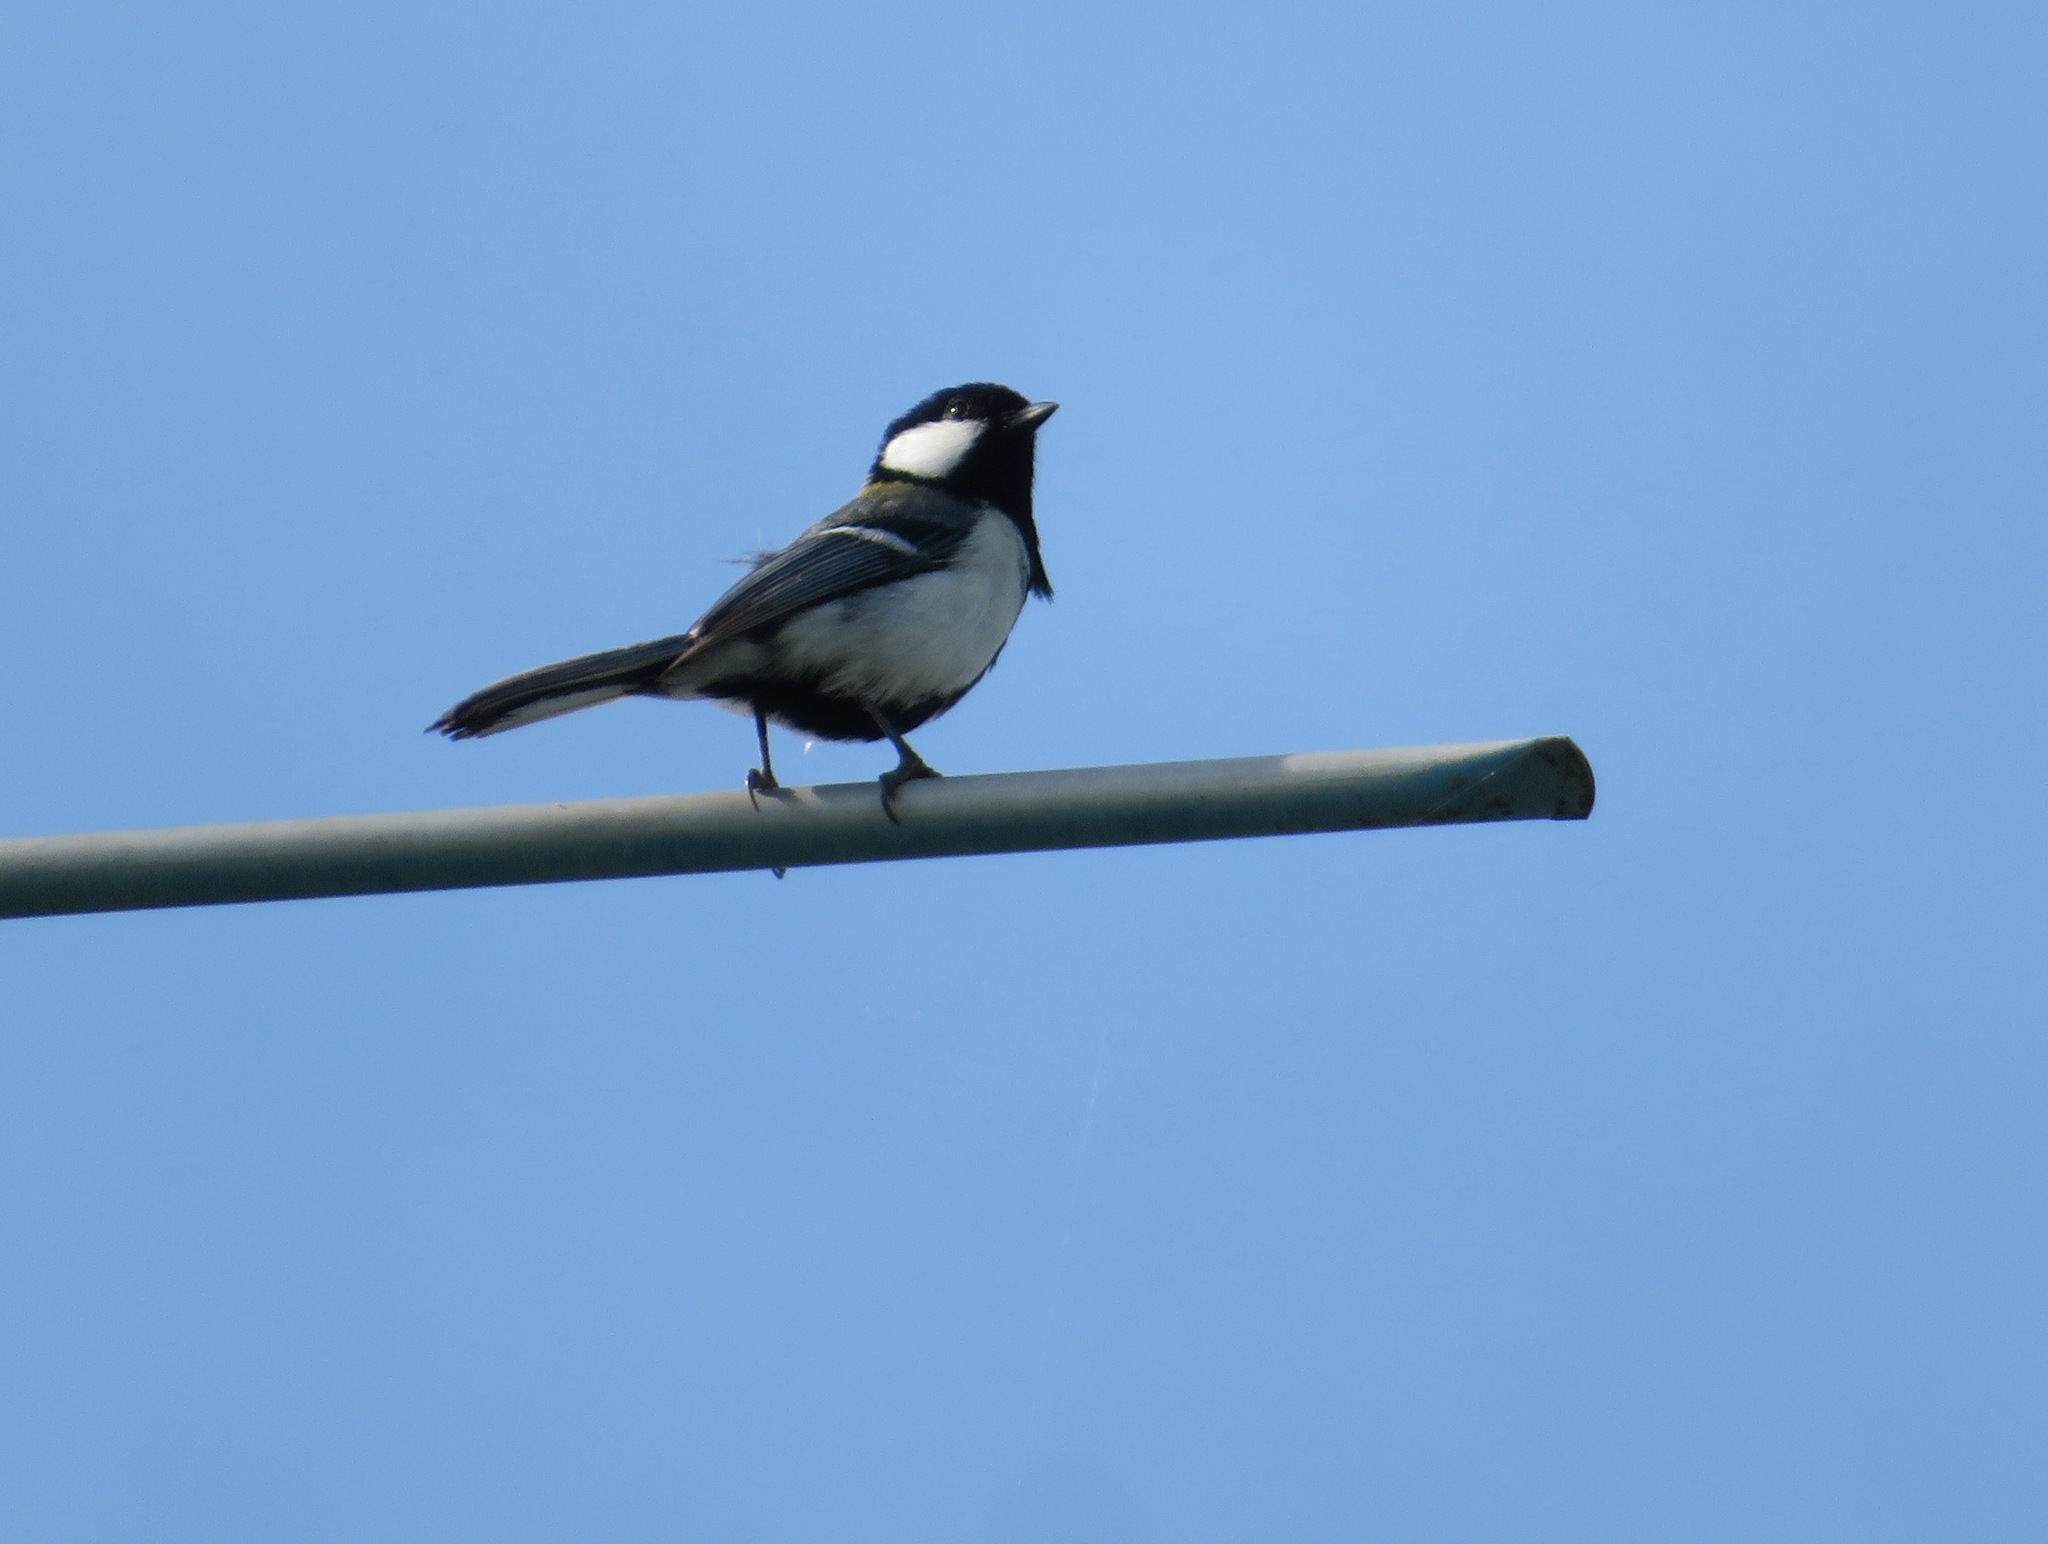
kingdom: Animalia
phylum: Chordata
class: Aves
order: Passeriformes
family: Paridae
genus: Parus
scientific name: Parus minor
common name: Japanese tit
